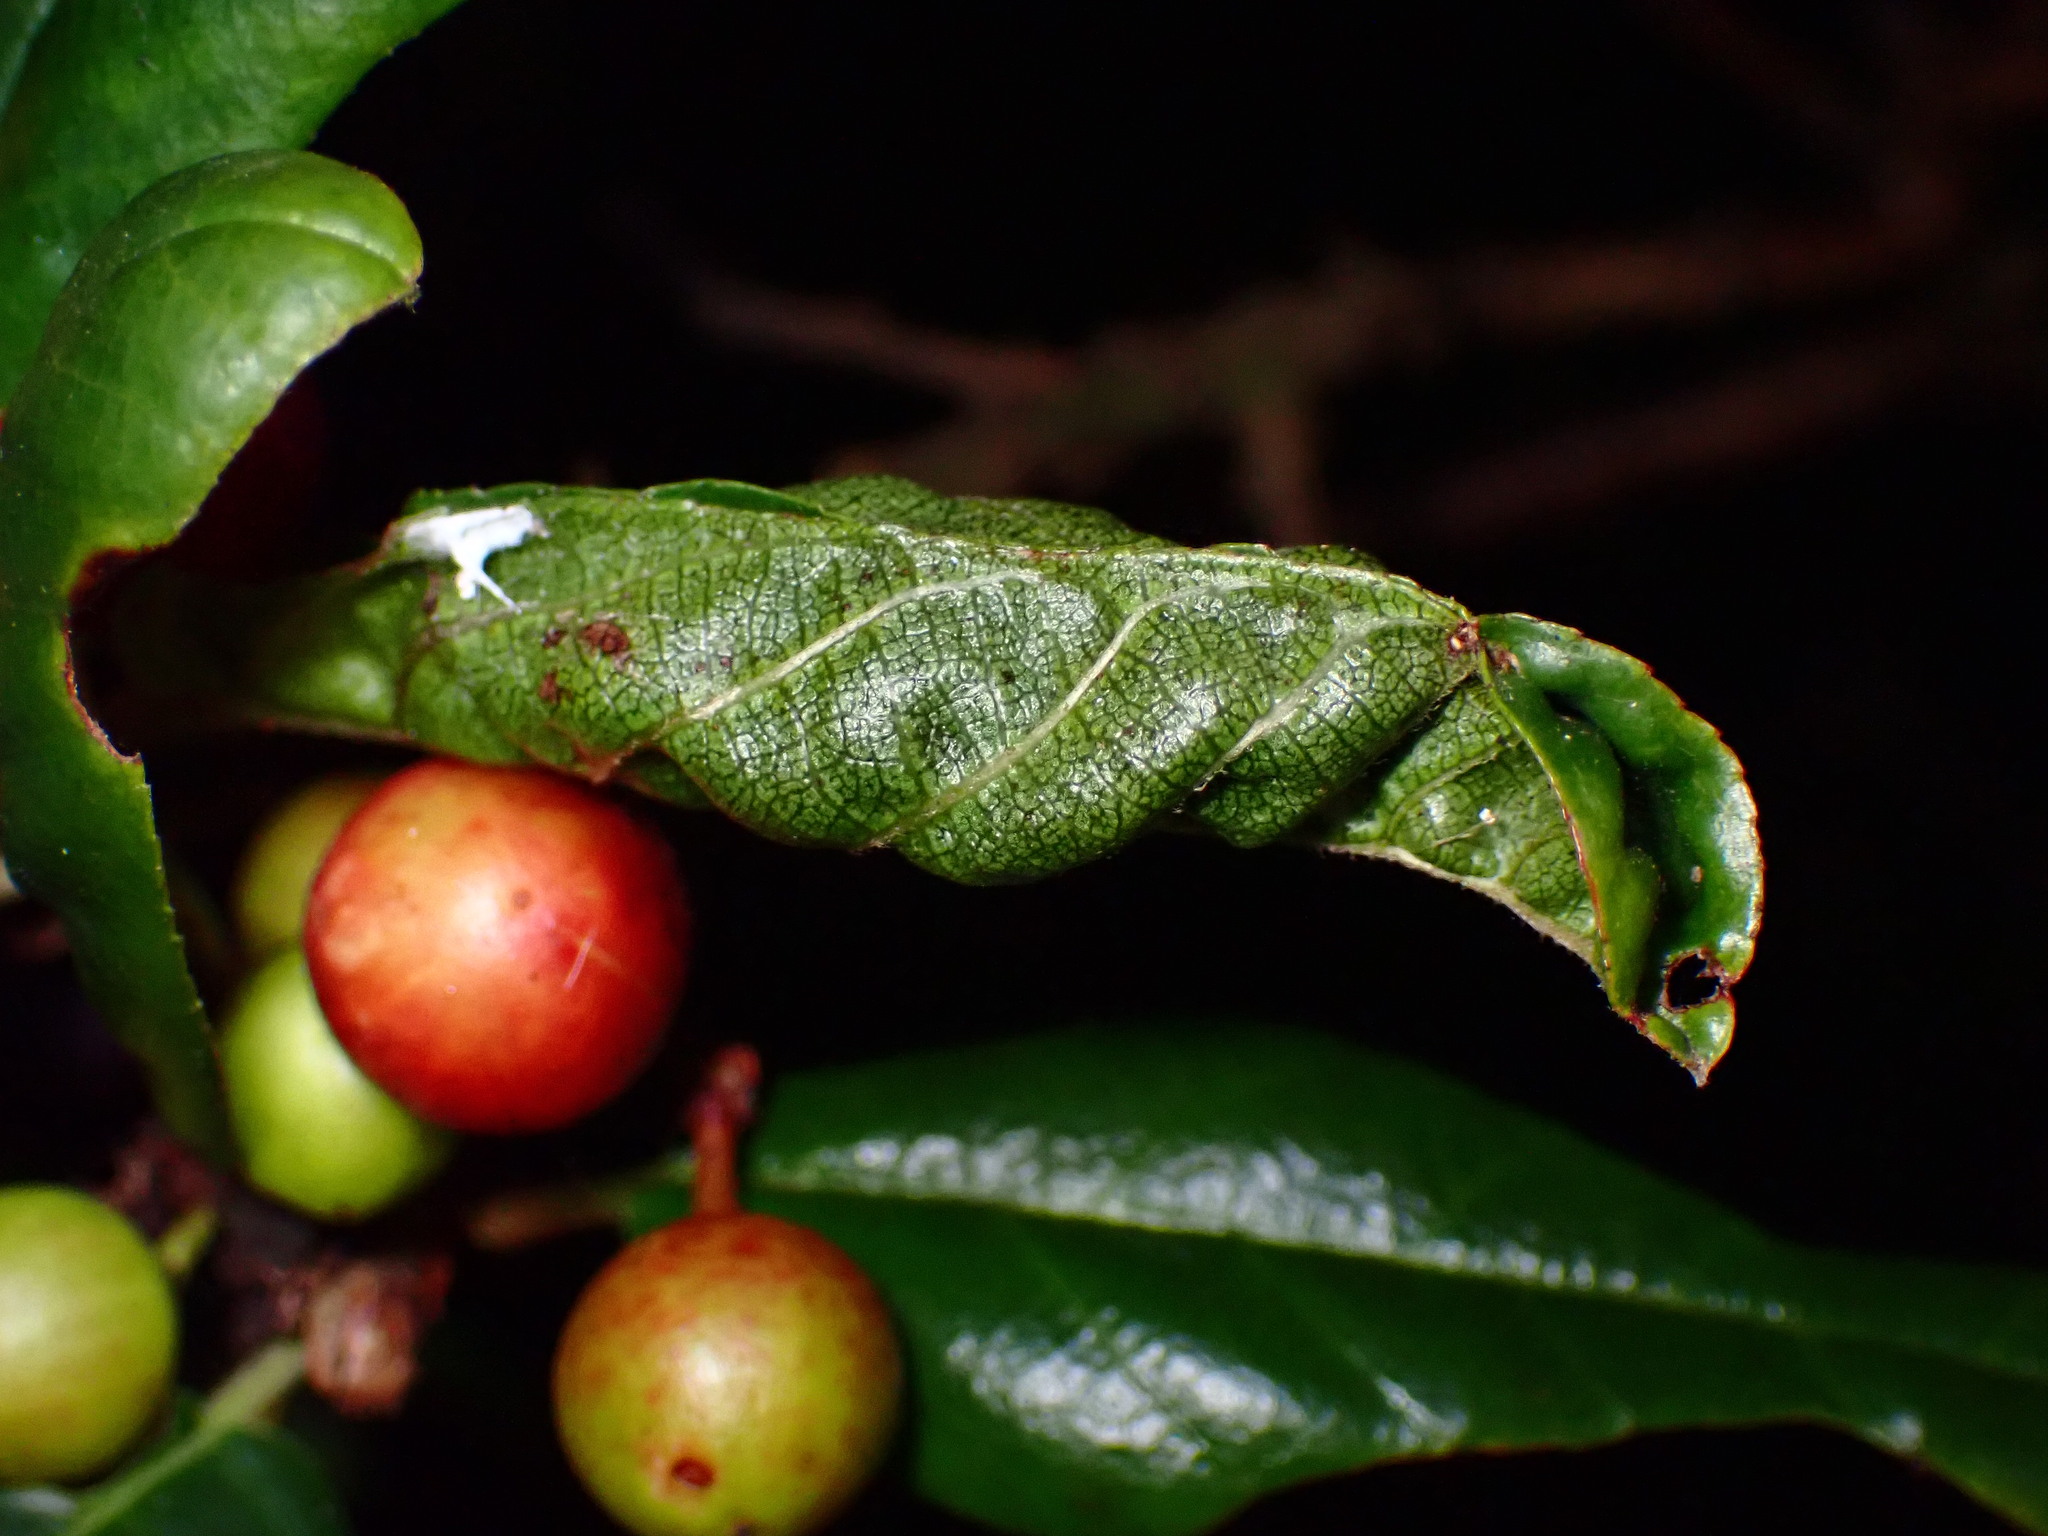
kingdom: Animalia
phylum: Arthropoda
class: Insecta
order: Lepidoptera
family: Cosmopterigidae
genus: Sorhagenia
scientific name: Sorhagenia nimbosus
